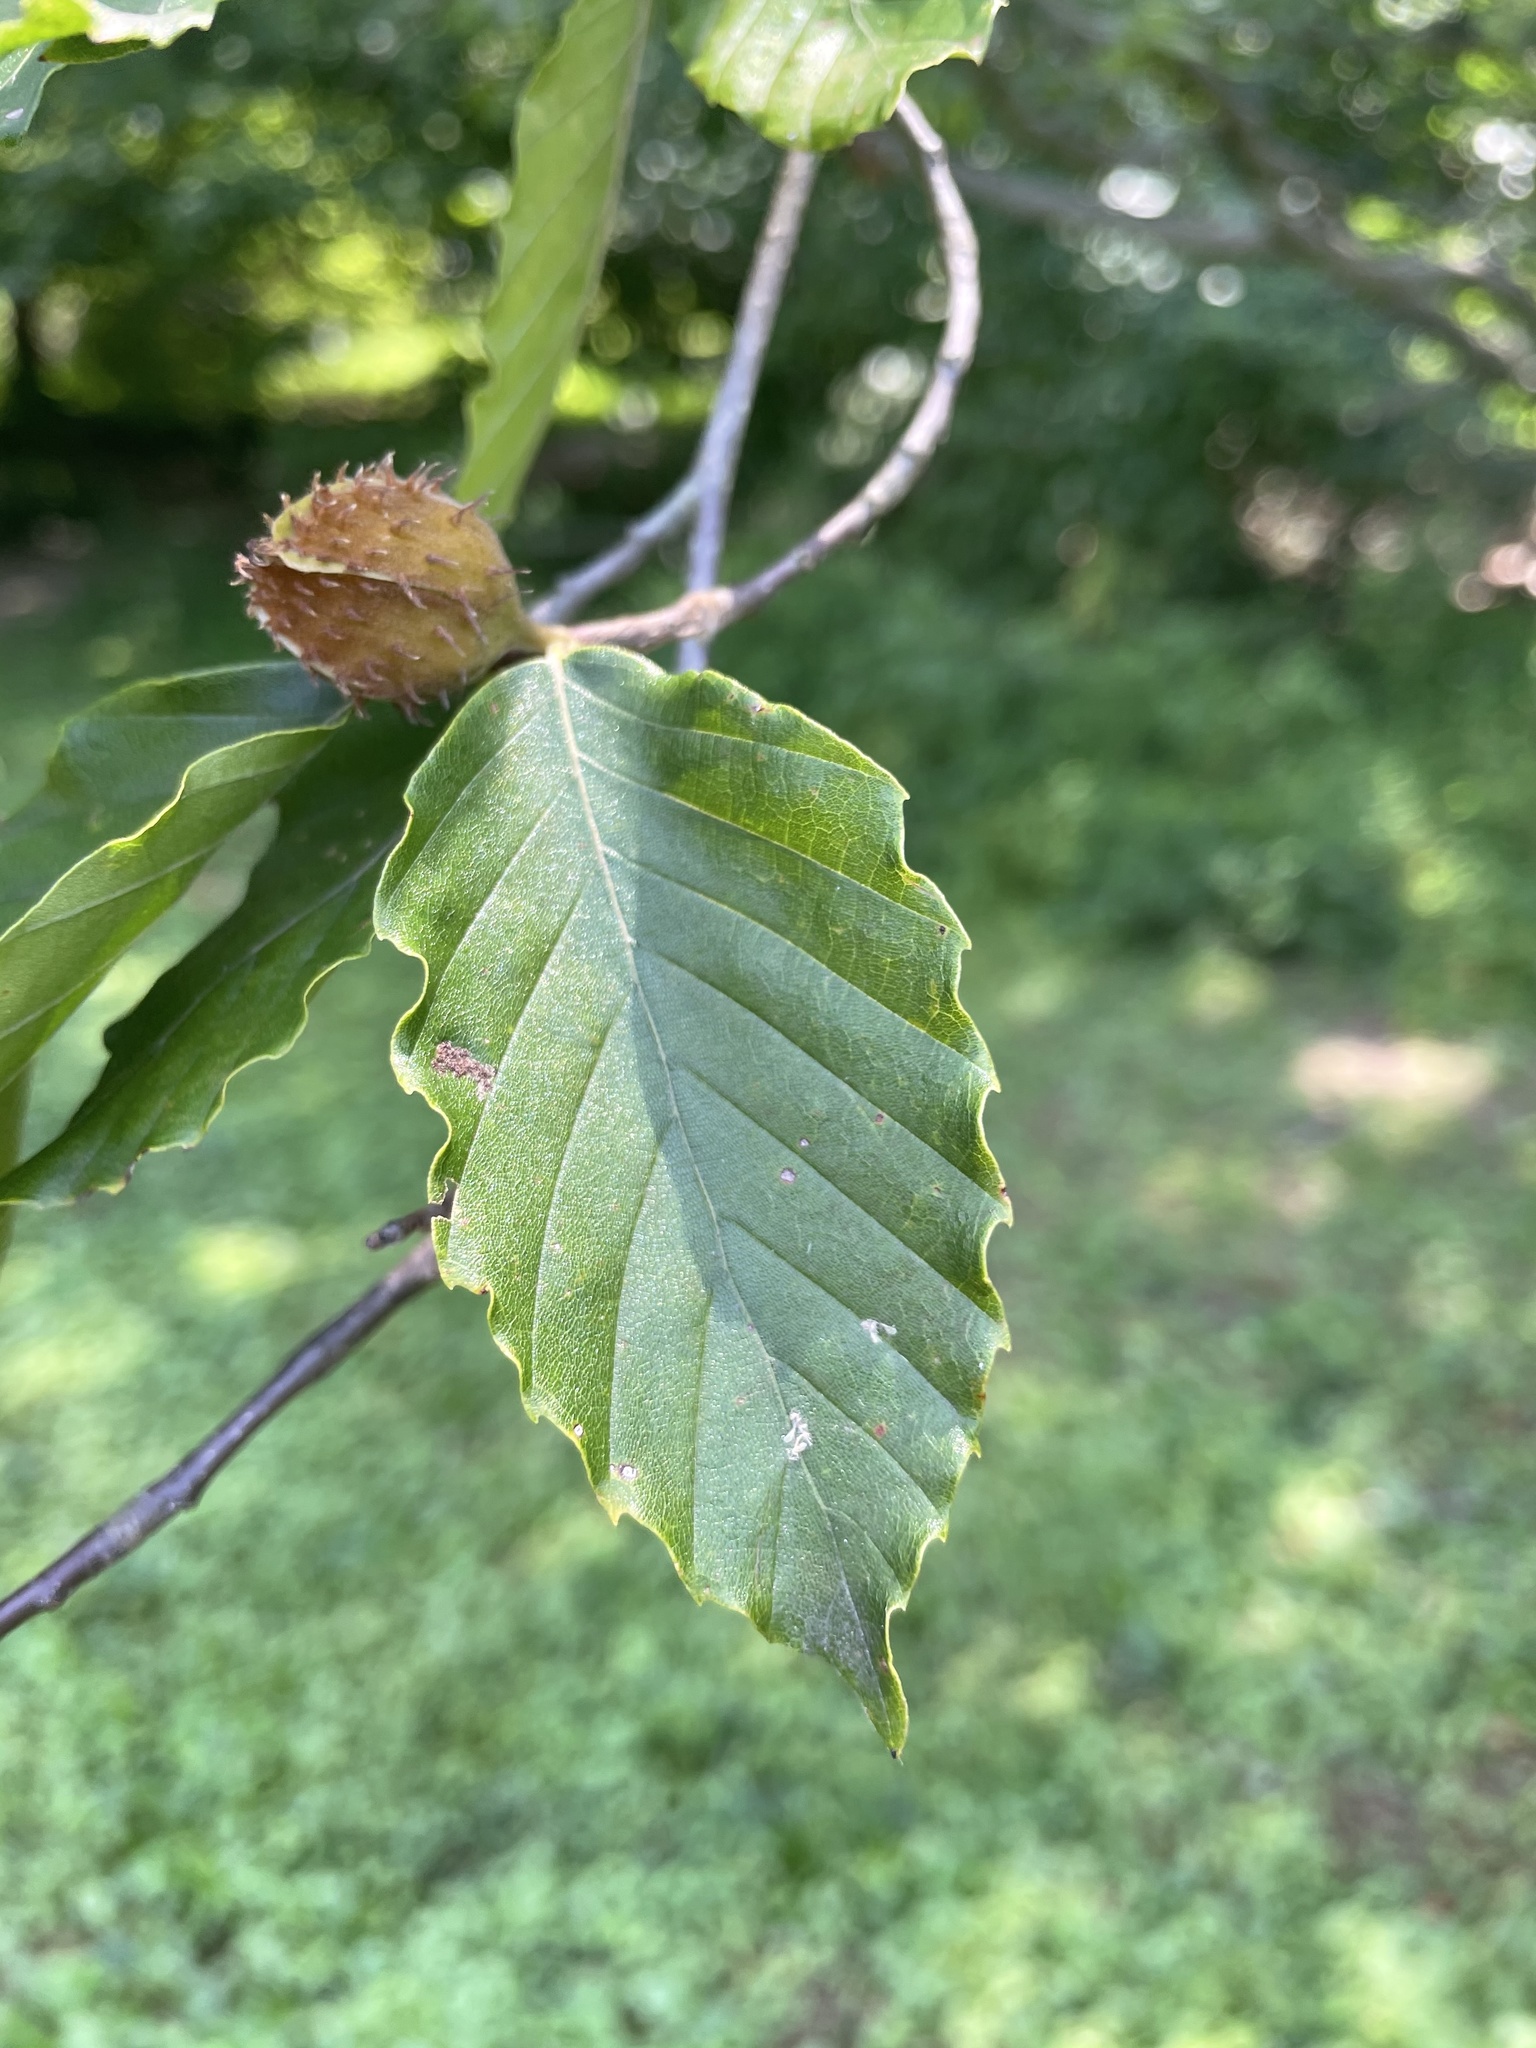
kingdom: Plantae
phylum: Tracheophyta
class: Magnoliopsida
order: Fagales
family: Fagaceae
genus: Fagus
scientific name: Fagus grandifolia
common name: American beech
